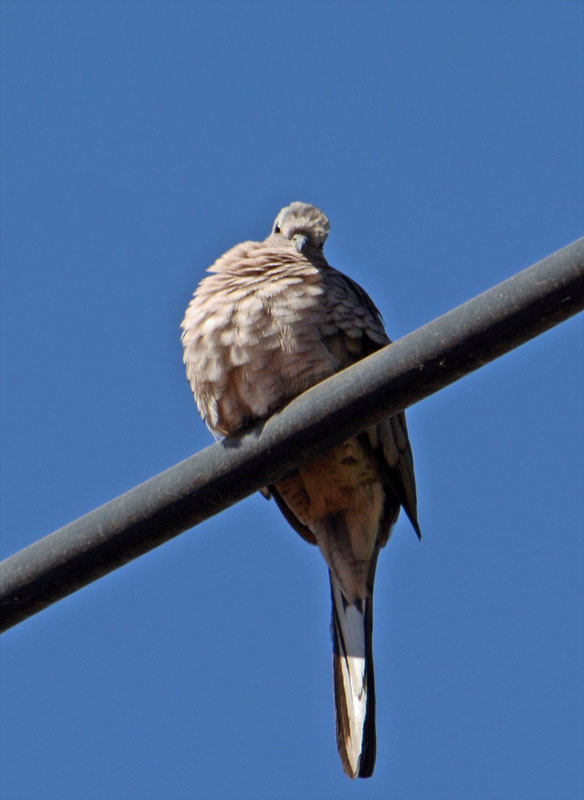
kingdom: Animalia
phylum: Chordata
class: Aves
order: Columbiformes
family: Columbidae
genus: Columbina
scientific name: Columbina inca
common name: Inca dove
